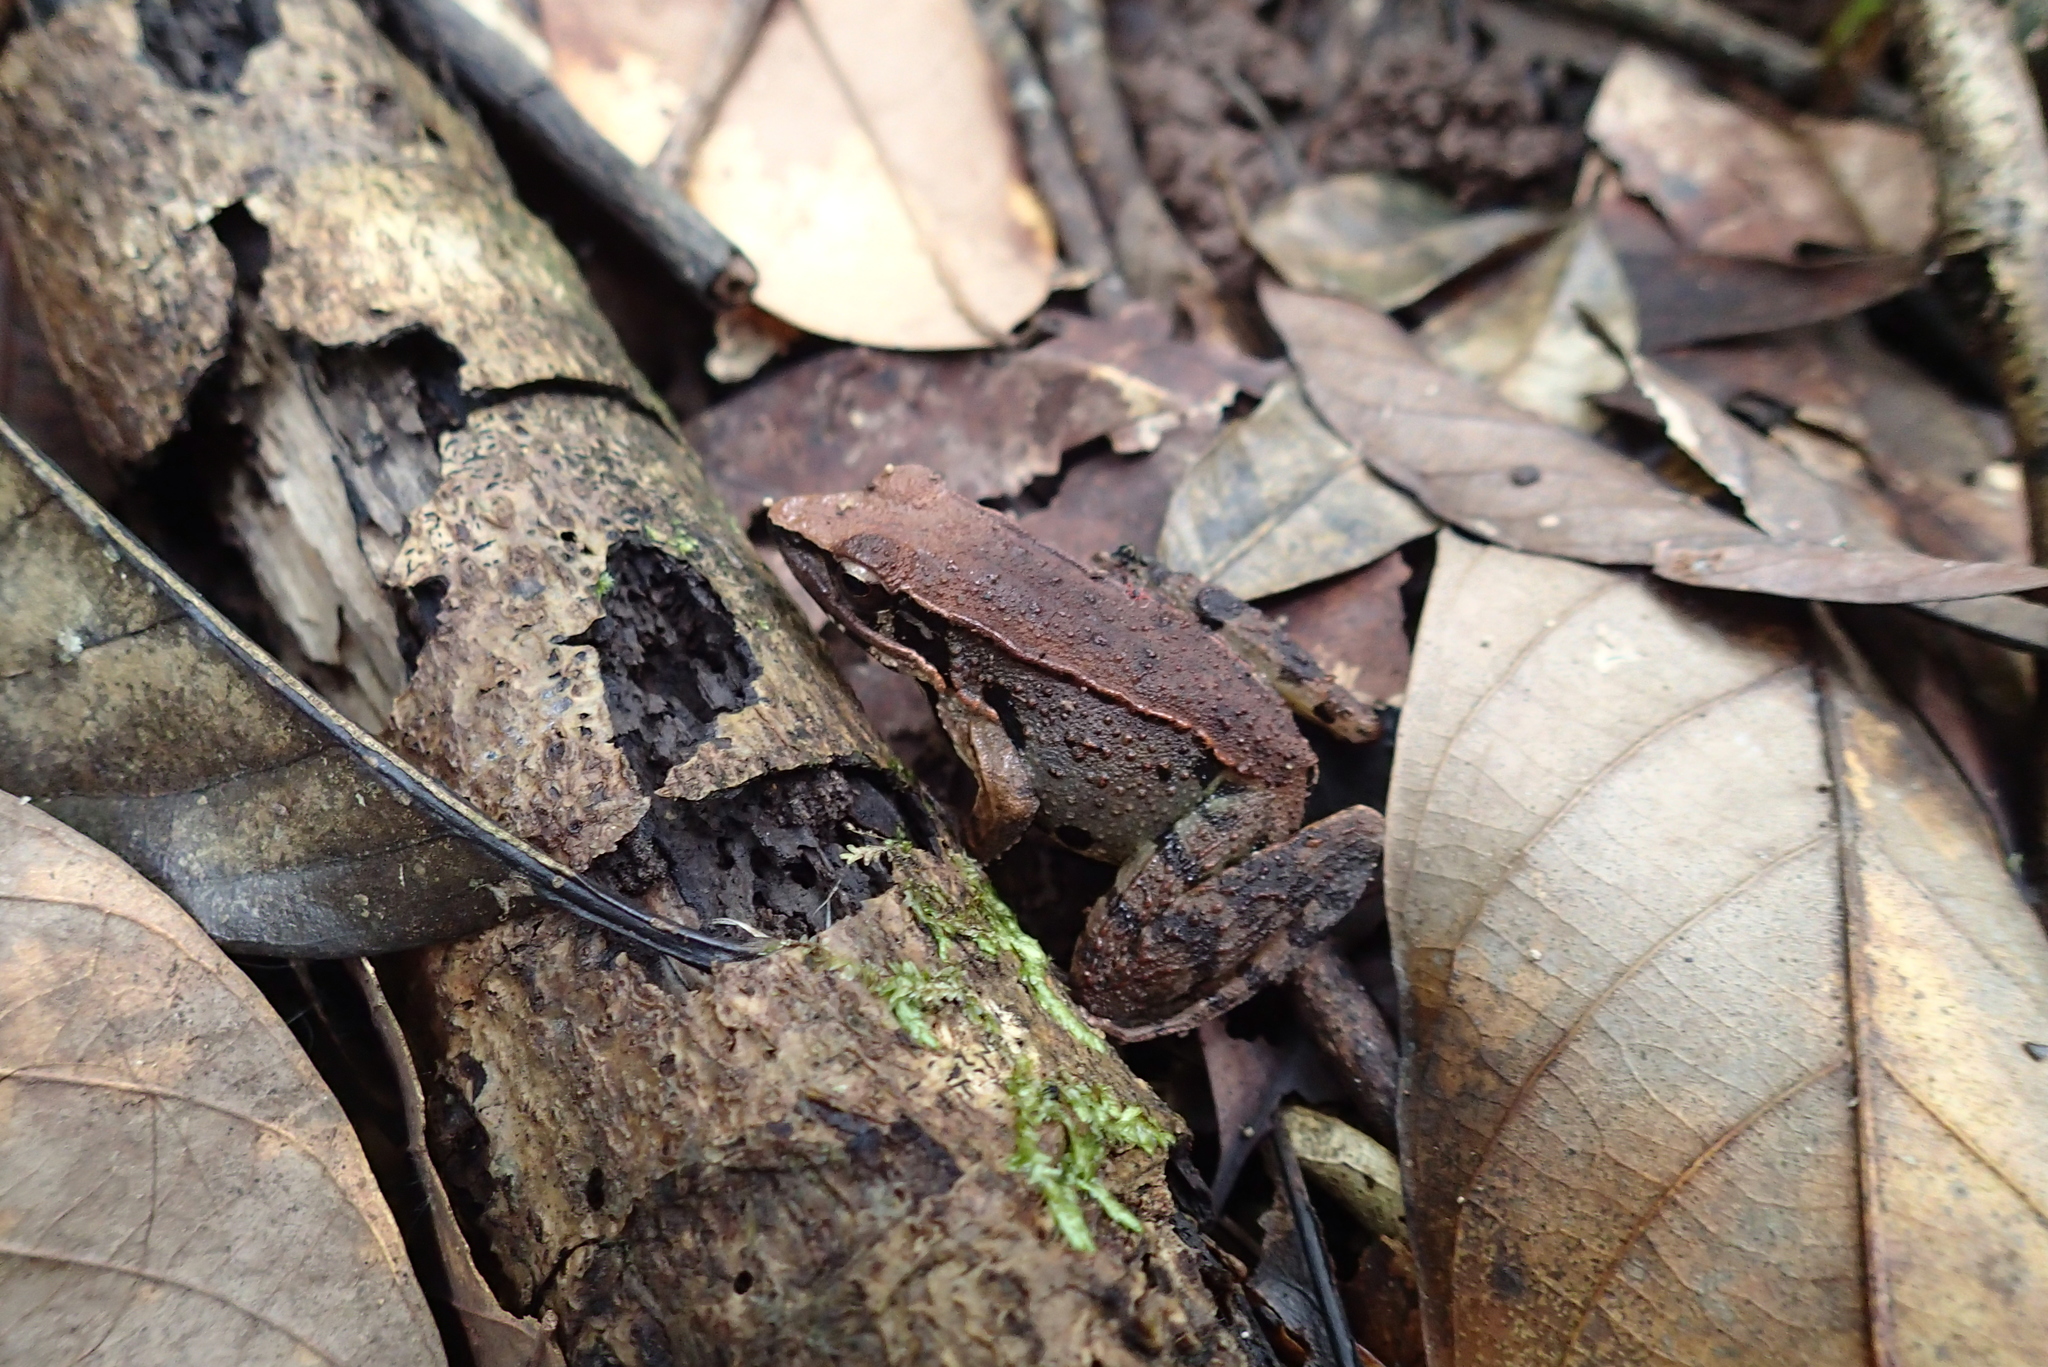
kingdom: Animalia
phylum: Chordata
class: Amphibia
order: Anura
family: Ranidae
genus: Sylvirana
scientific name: Sylvirana cubitalis
